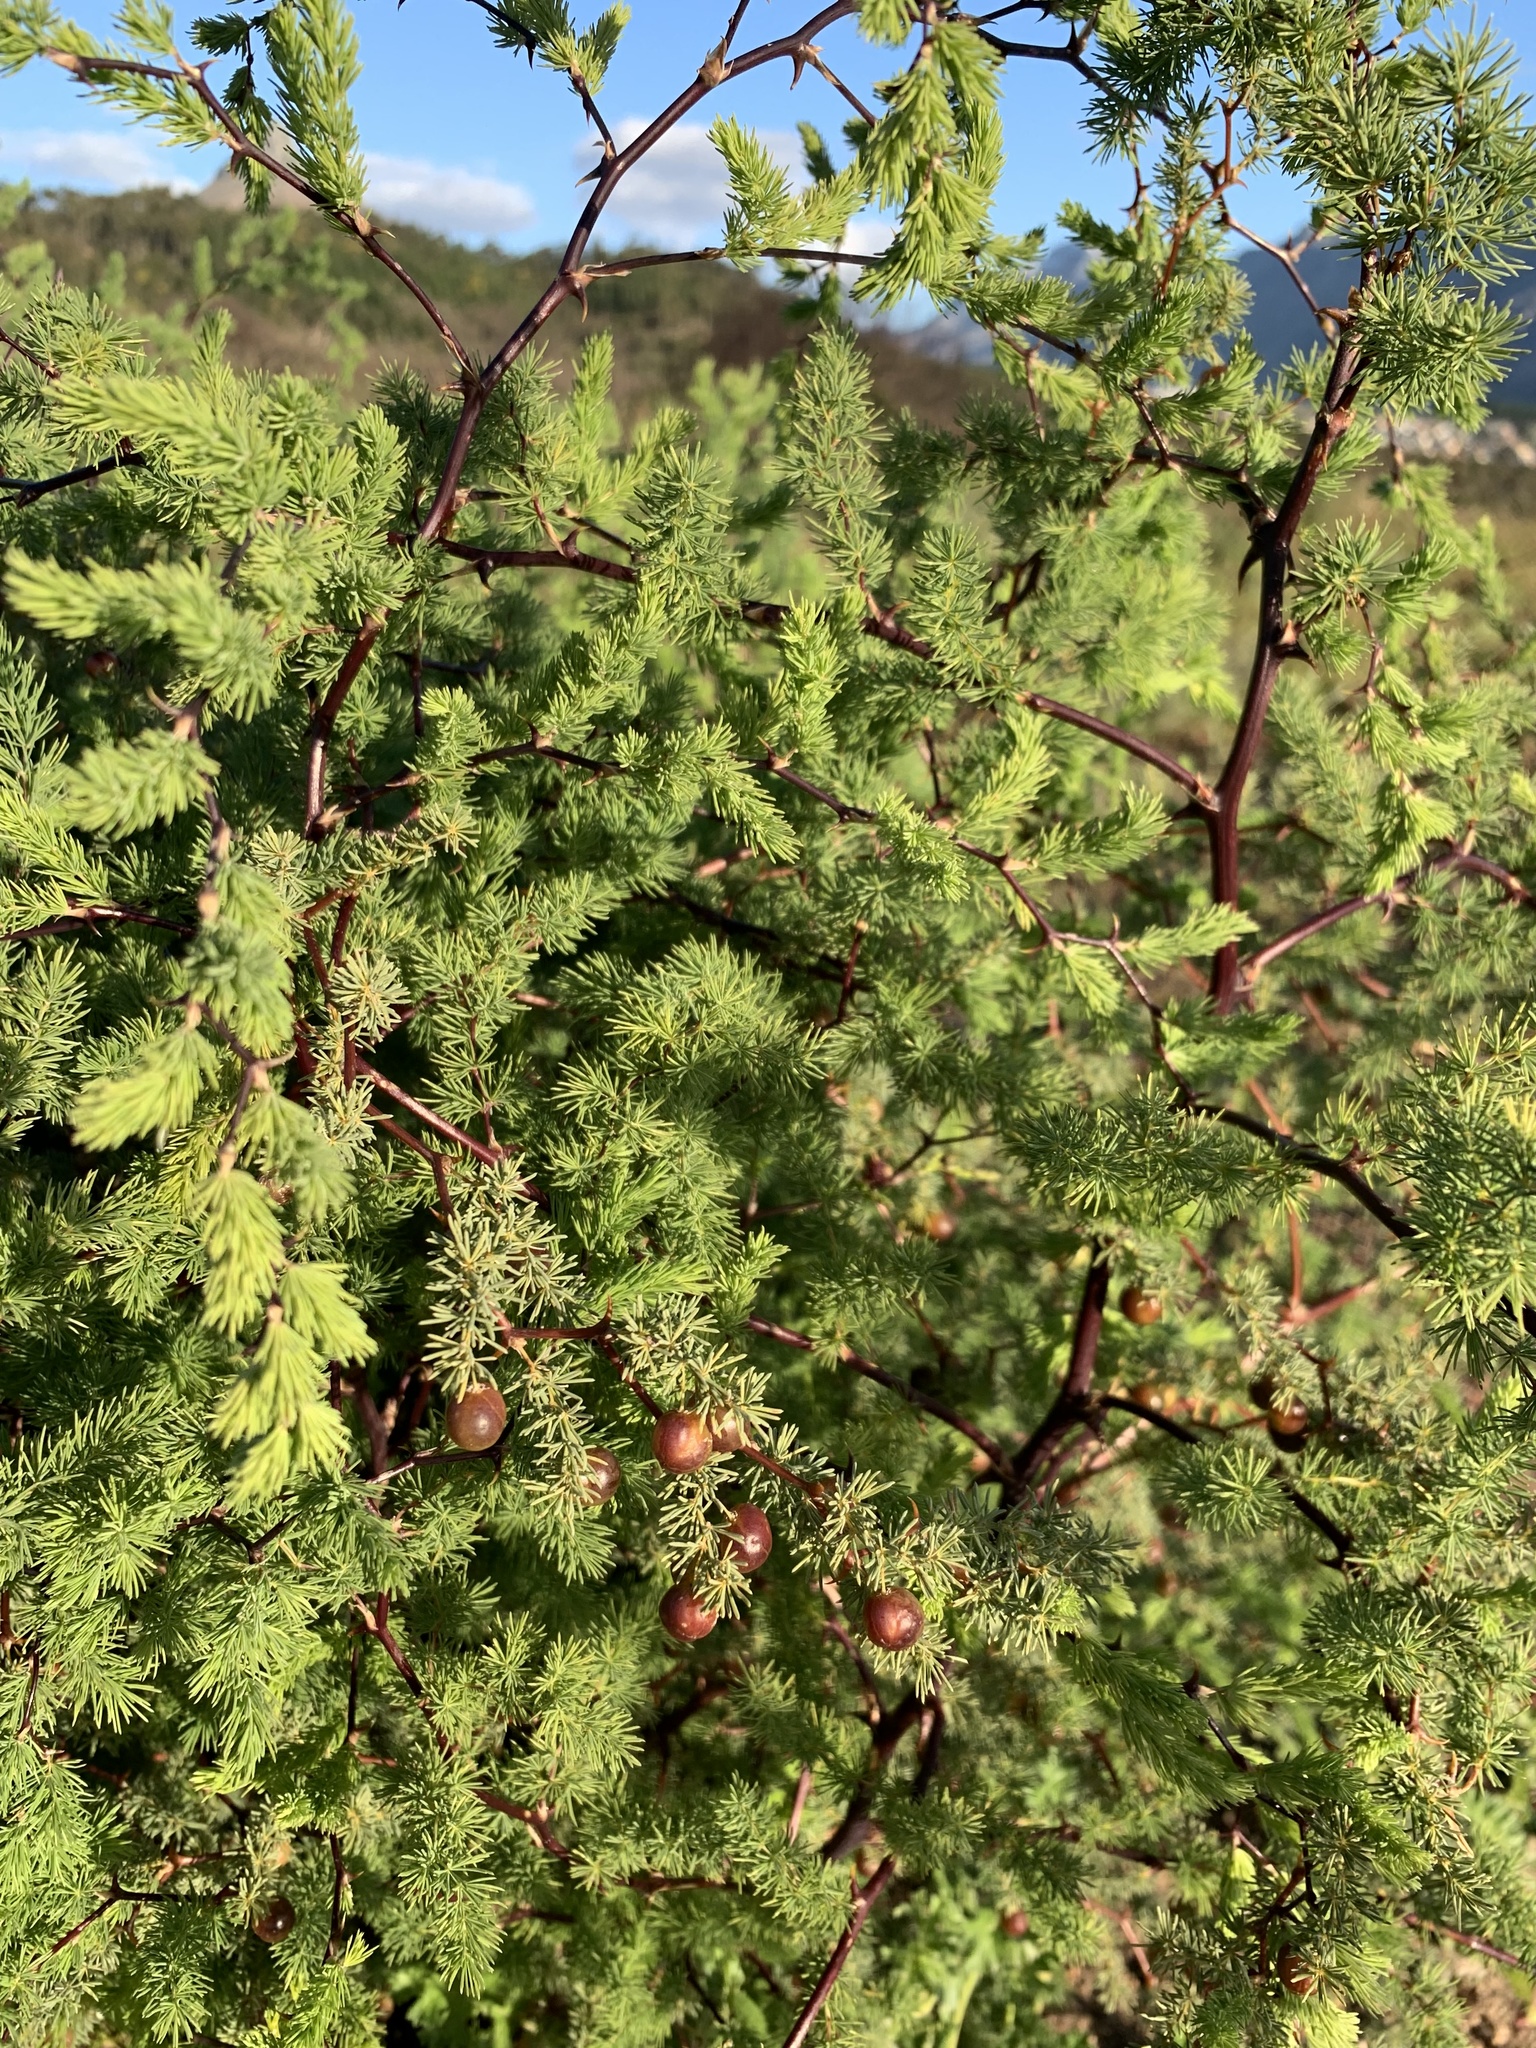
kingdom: Plantae
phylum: Tracheophyta
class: Liliopsida
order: Asparagales
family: Asparagaceae
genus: Asparagus
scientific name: Asparagus rubicundus
